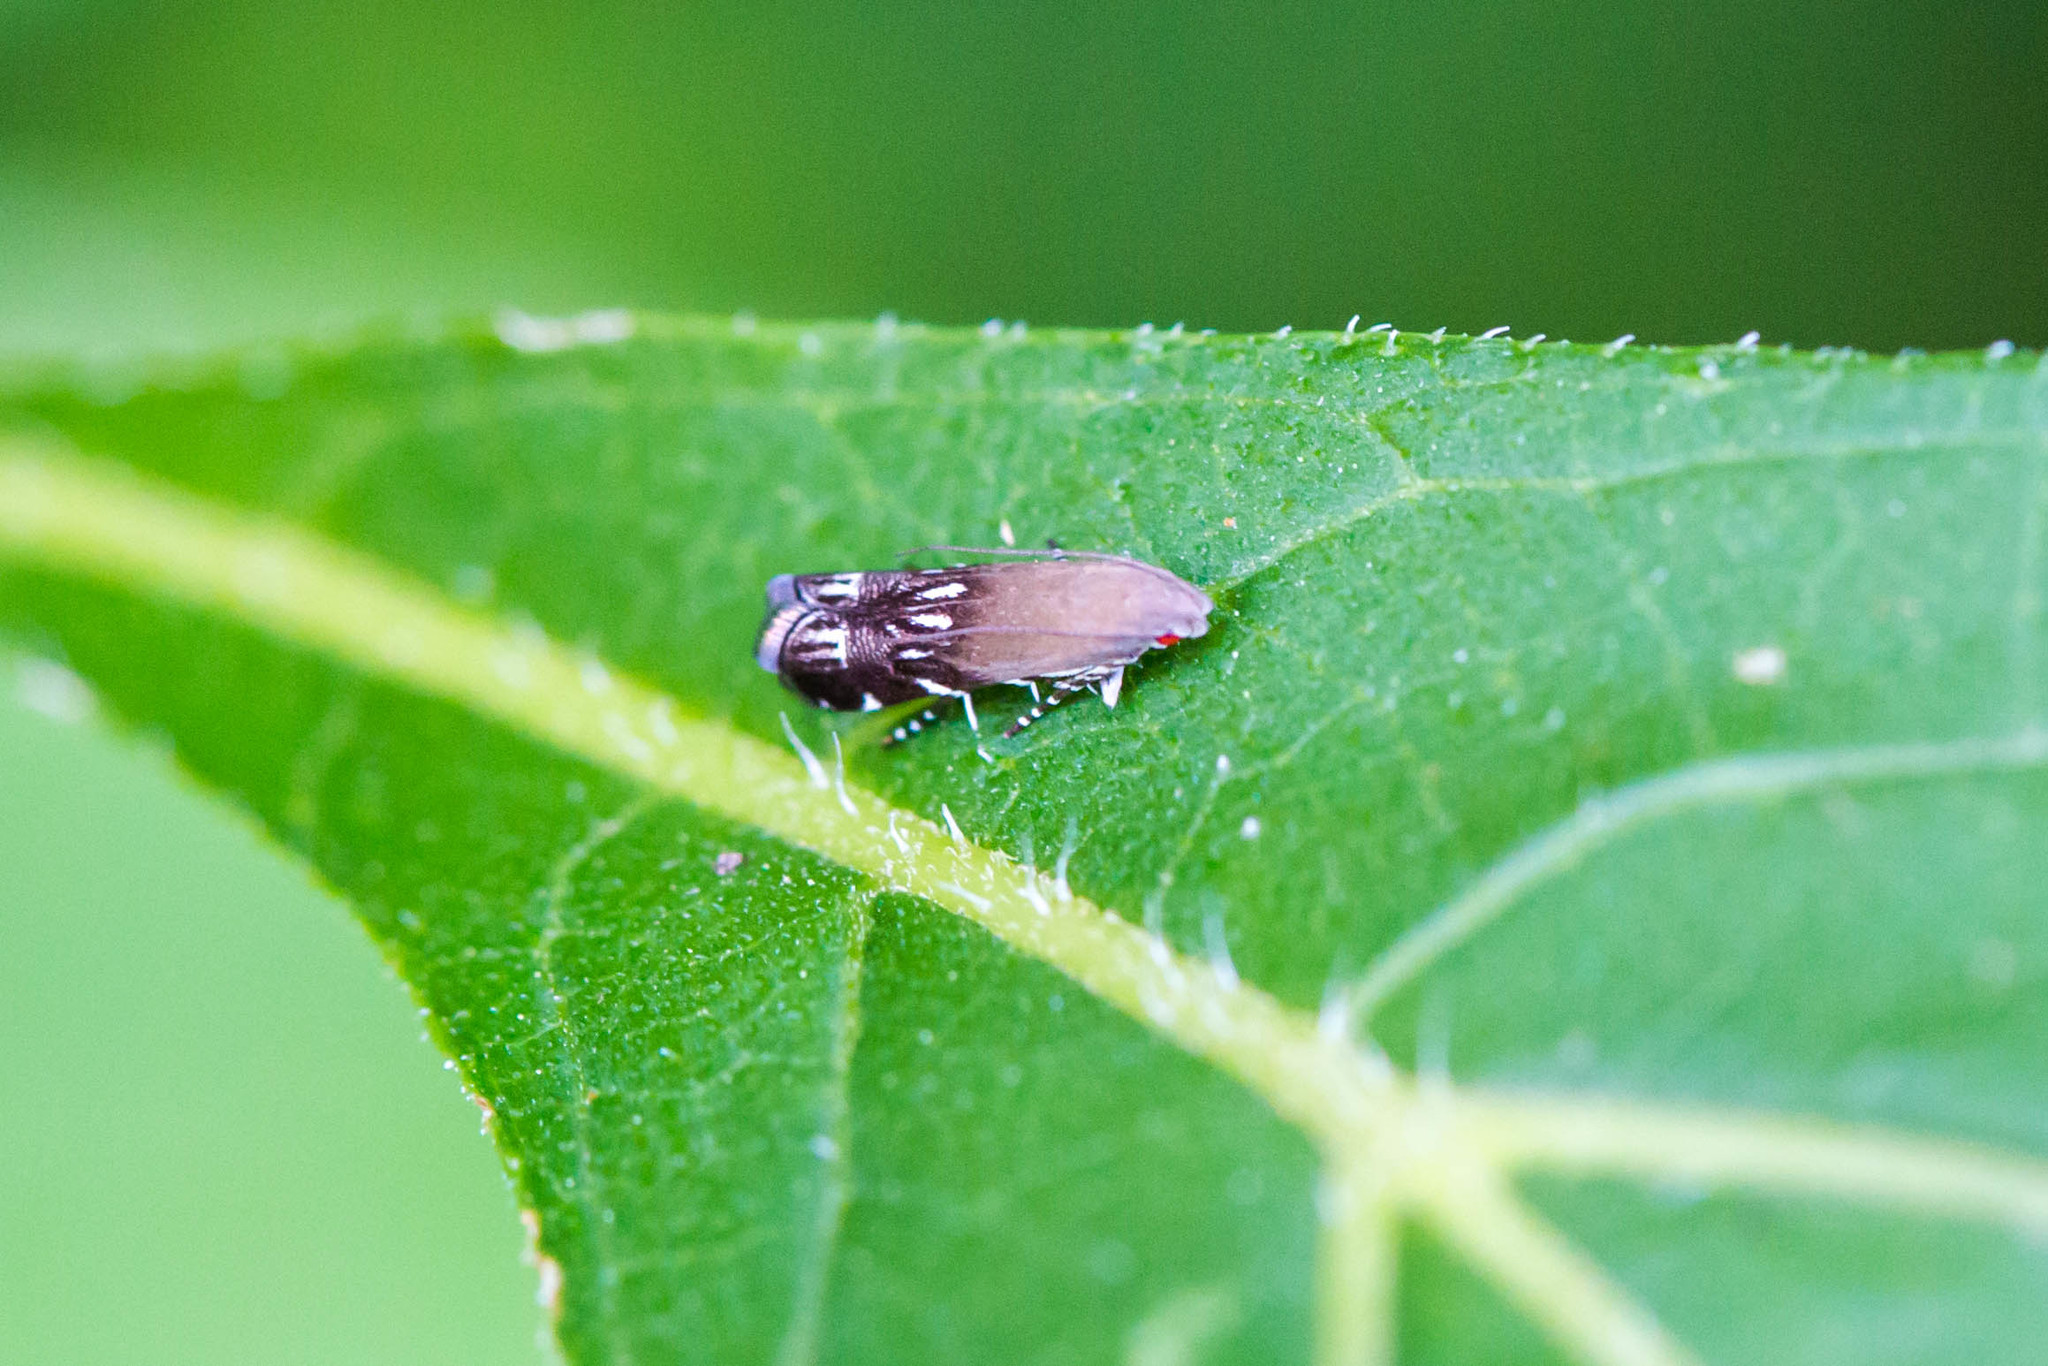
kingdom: Animalia
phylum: Arthropoda
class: Insecta
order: Lepidoptera
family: Gelechiidae
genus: Anacampsis
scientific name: Anacampsis levipedella
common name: Silver-dashed anacampsis
